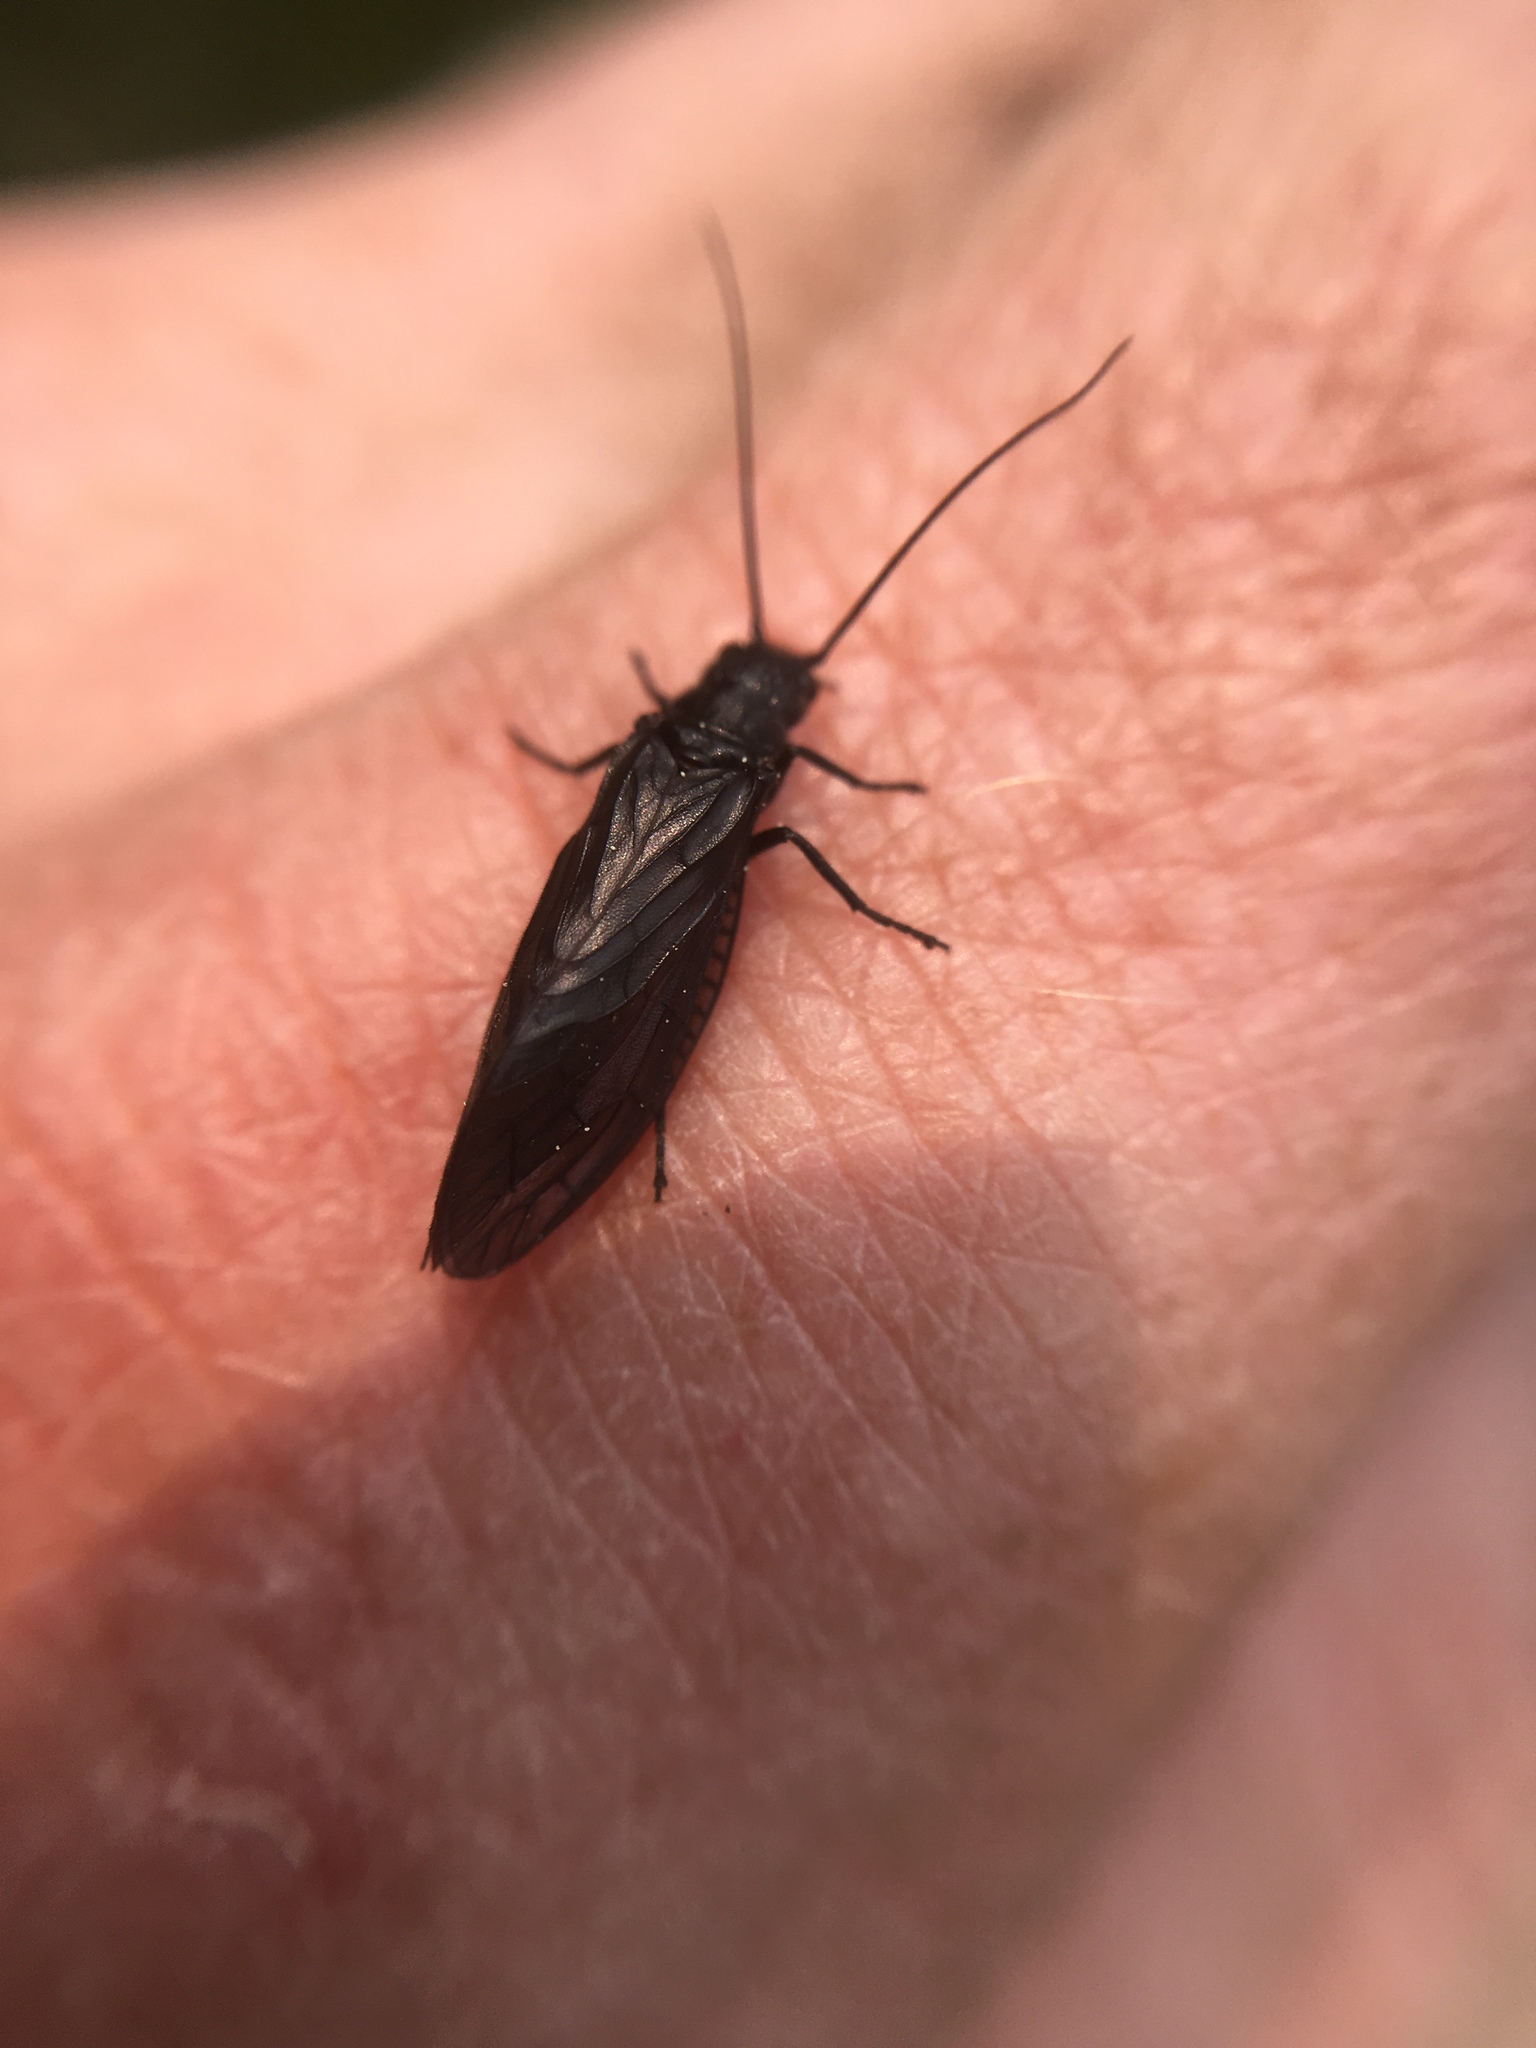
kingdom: Animalia
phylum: Arthropoda
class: Insecta
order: Megaloptera
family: Sialidae
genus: Sialis
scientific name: Sialis
